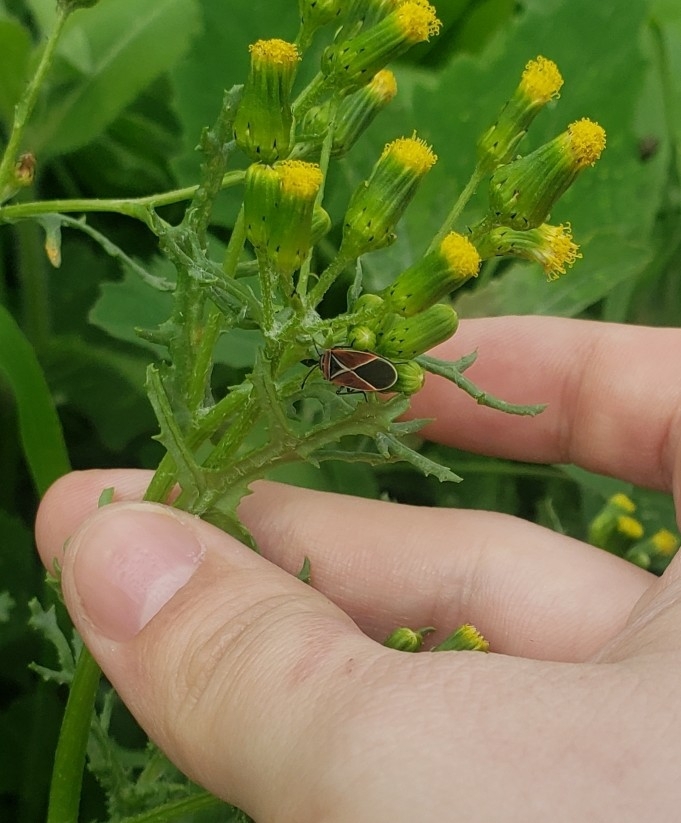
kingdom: Animalia
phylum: Arthropoda
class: Insecta
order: Hemiptera
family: Lygaeidae
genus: Neacoryphus
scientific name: Neacoryphus bicrucis
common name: Lygaeid bug
